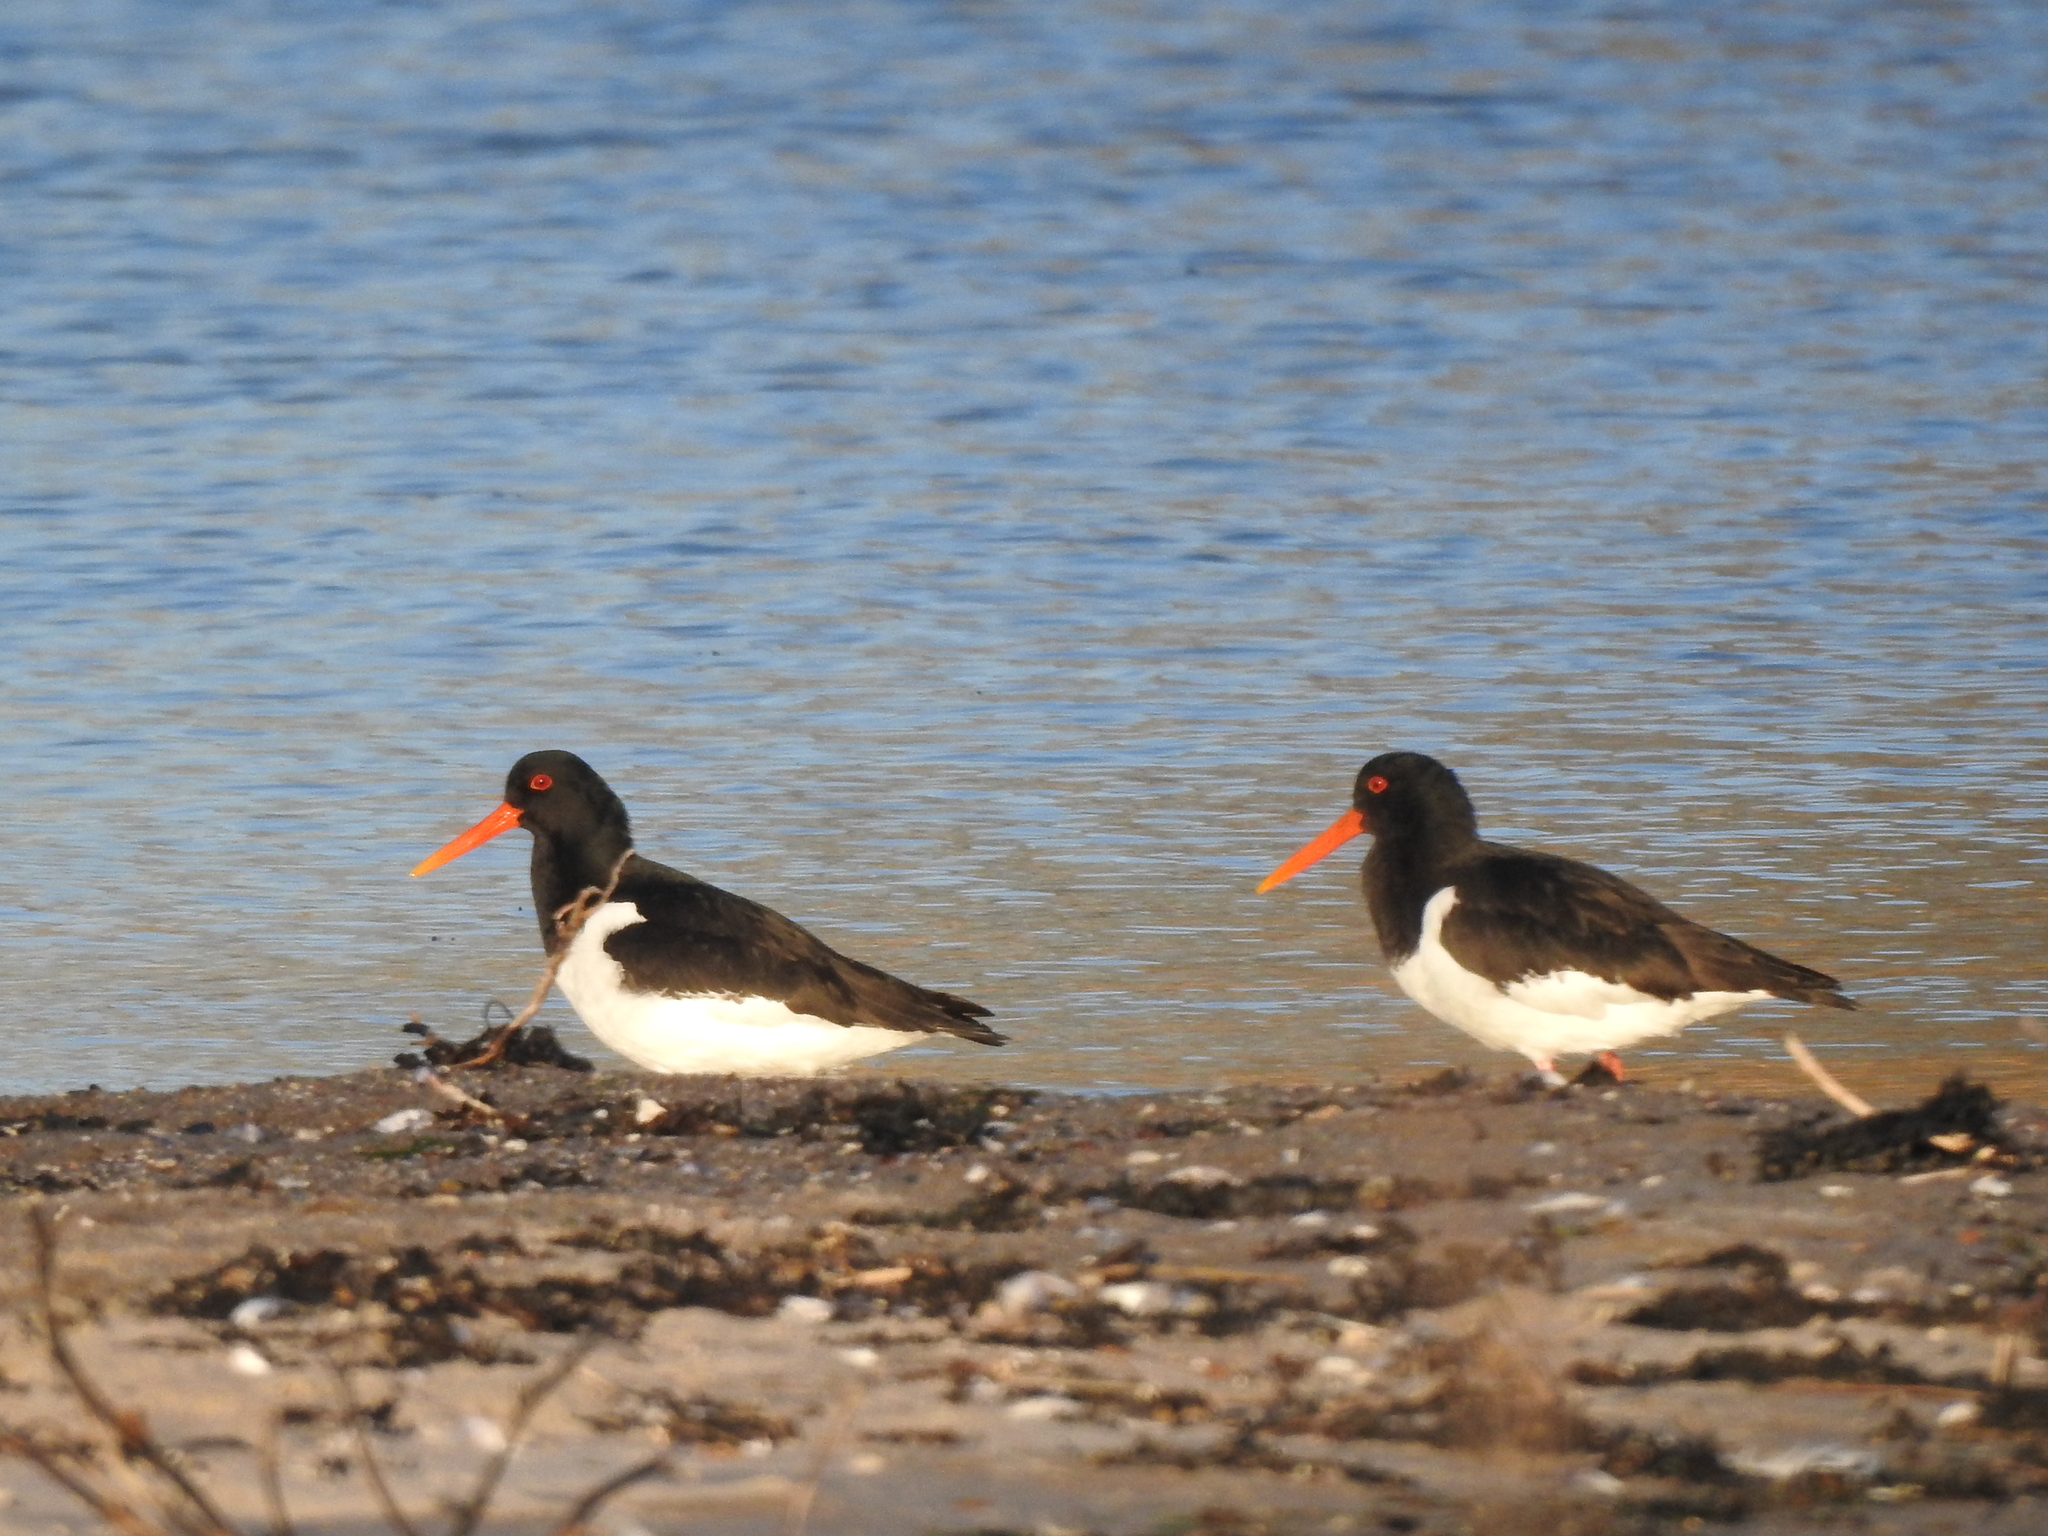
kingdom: Animalia
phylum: Chordata
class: Aves
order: Charadriiformes
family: Haematopodidae
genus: Haematopus
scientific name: Haematopus ostralegus
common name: Eurasian oystercatcher
